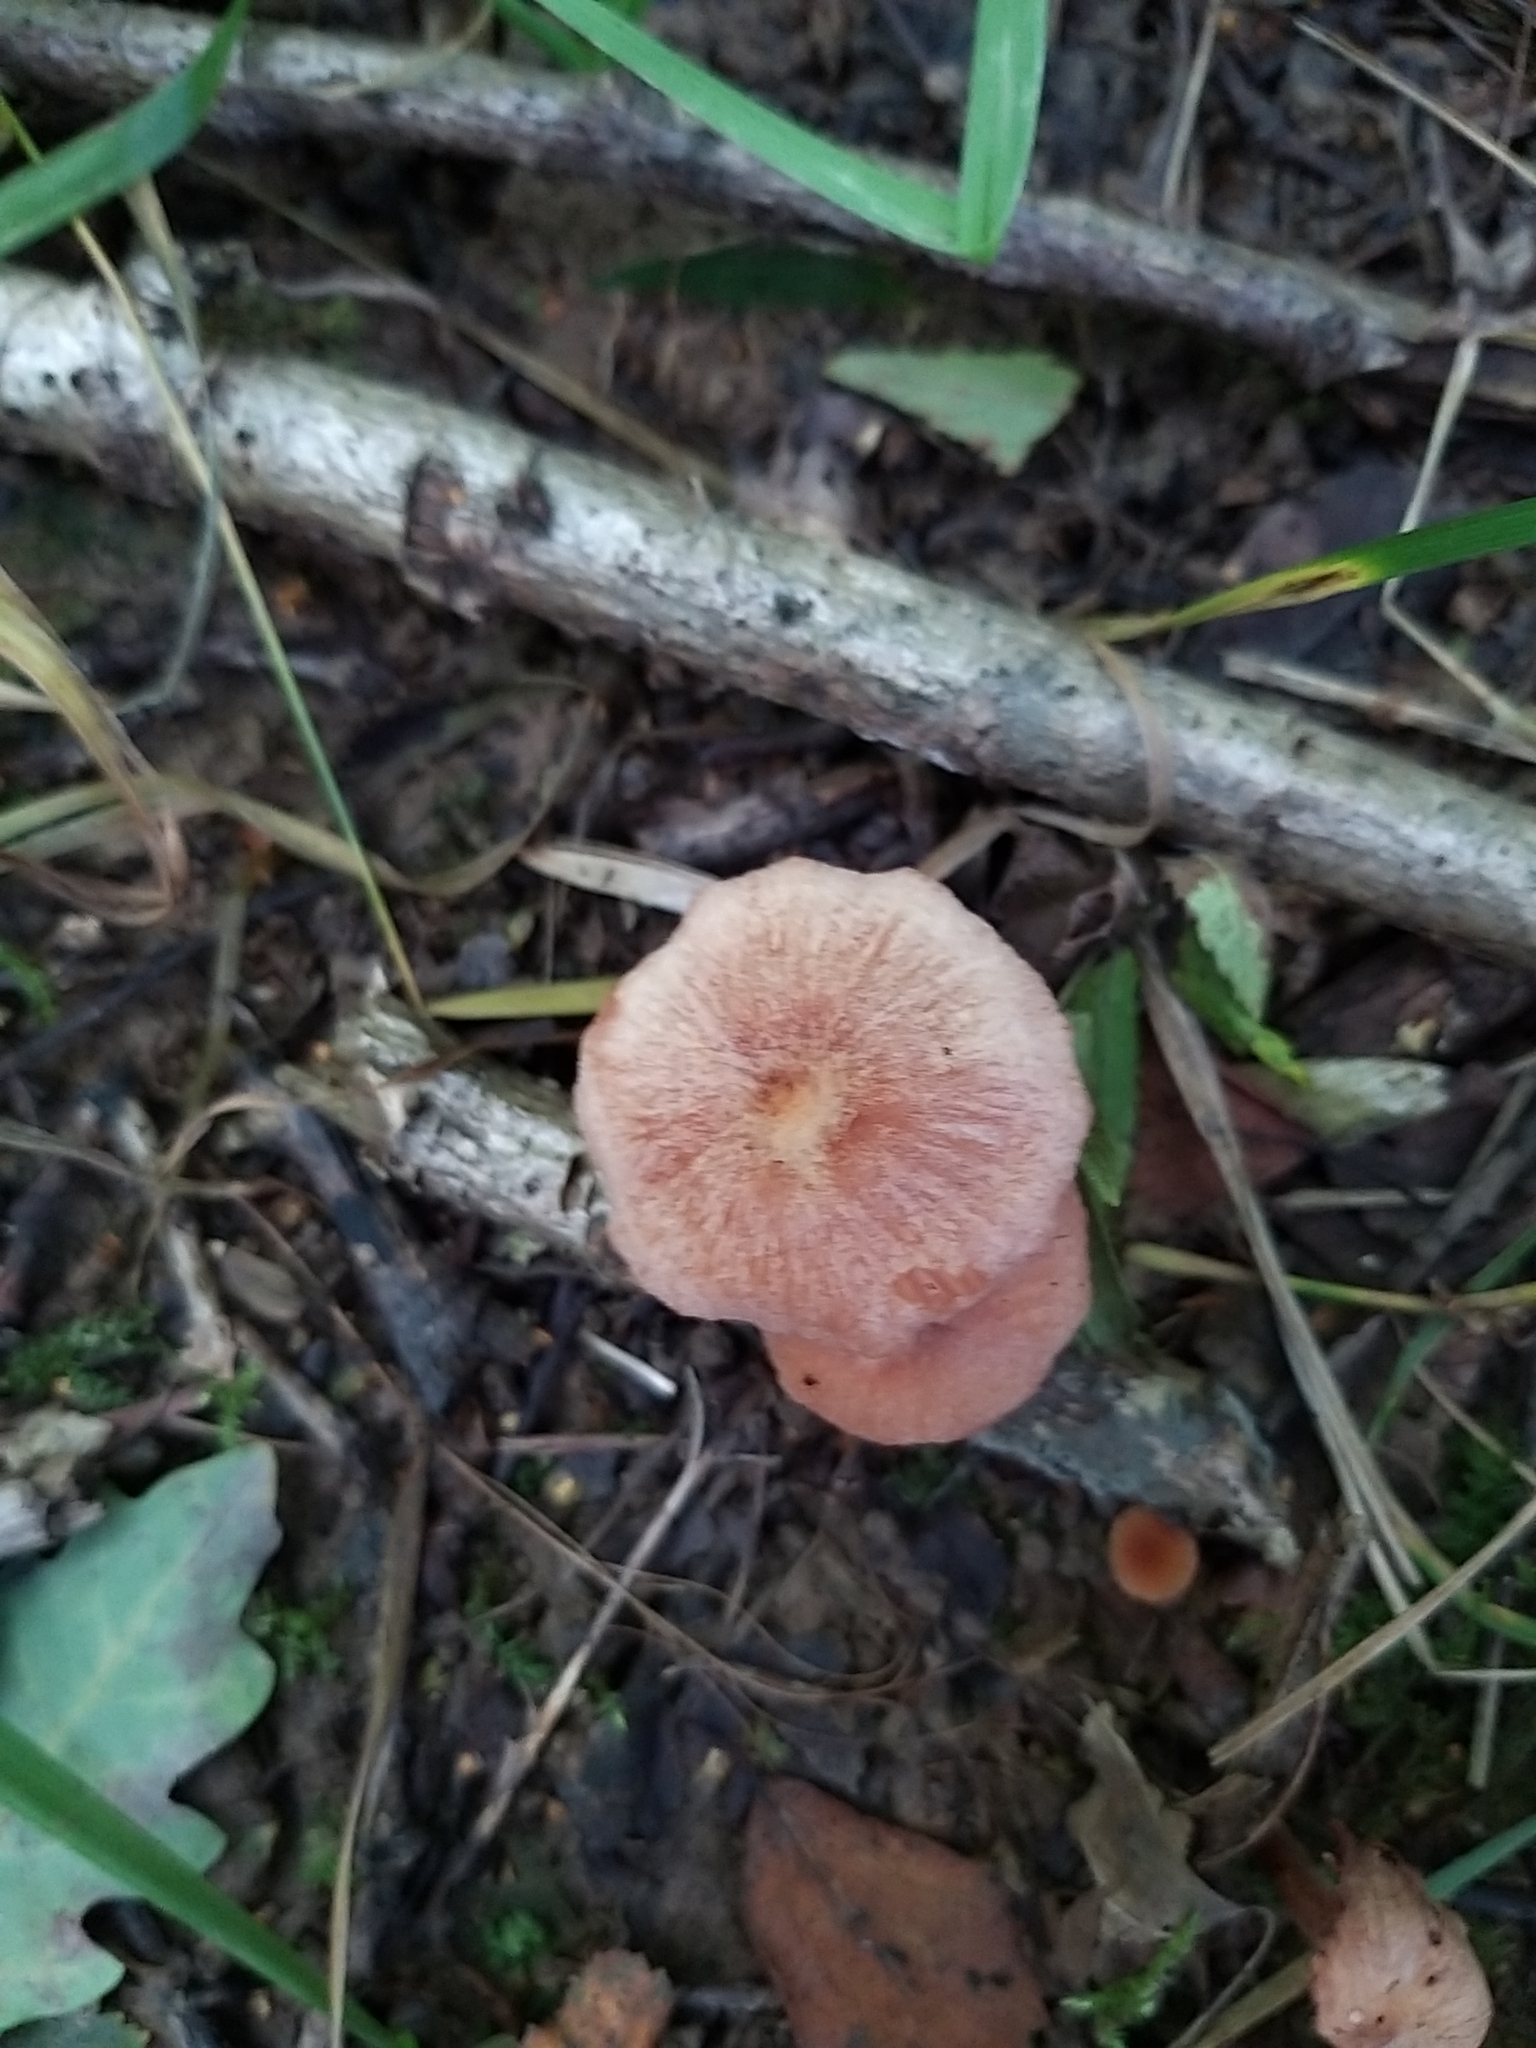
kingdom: Fungi
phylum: Basidiomycota
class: Agaricomycetes
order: Agaricales
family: Hydnangiaceae
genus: Laccaria
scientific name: Laccaria laccata
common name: Deceiver
